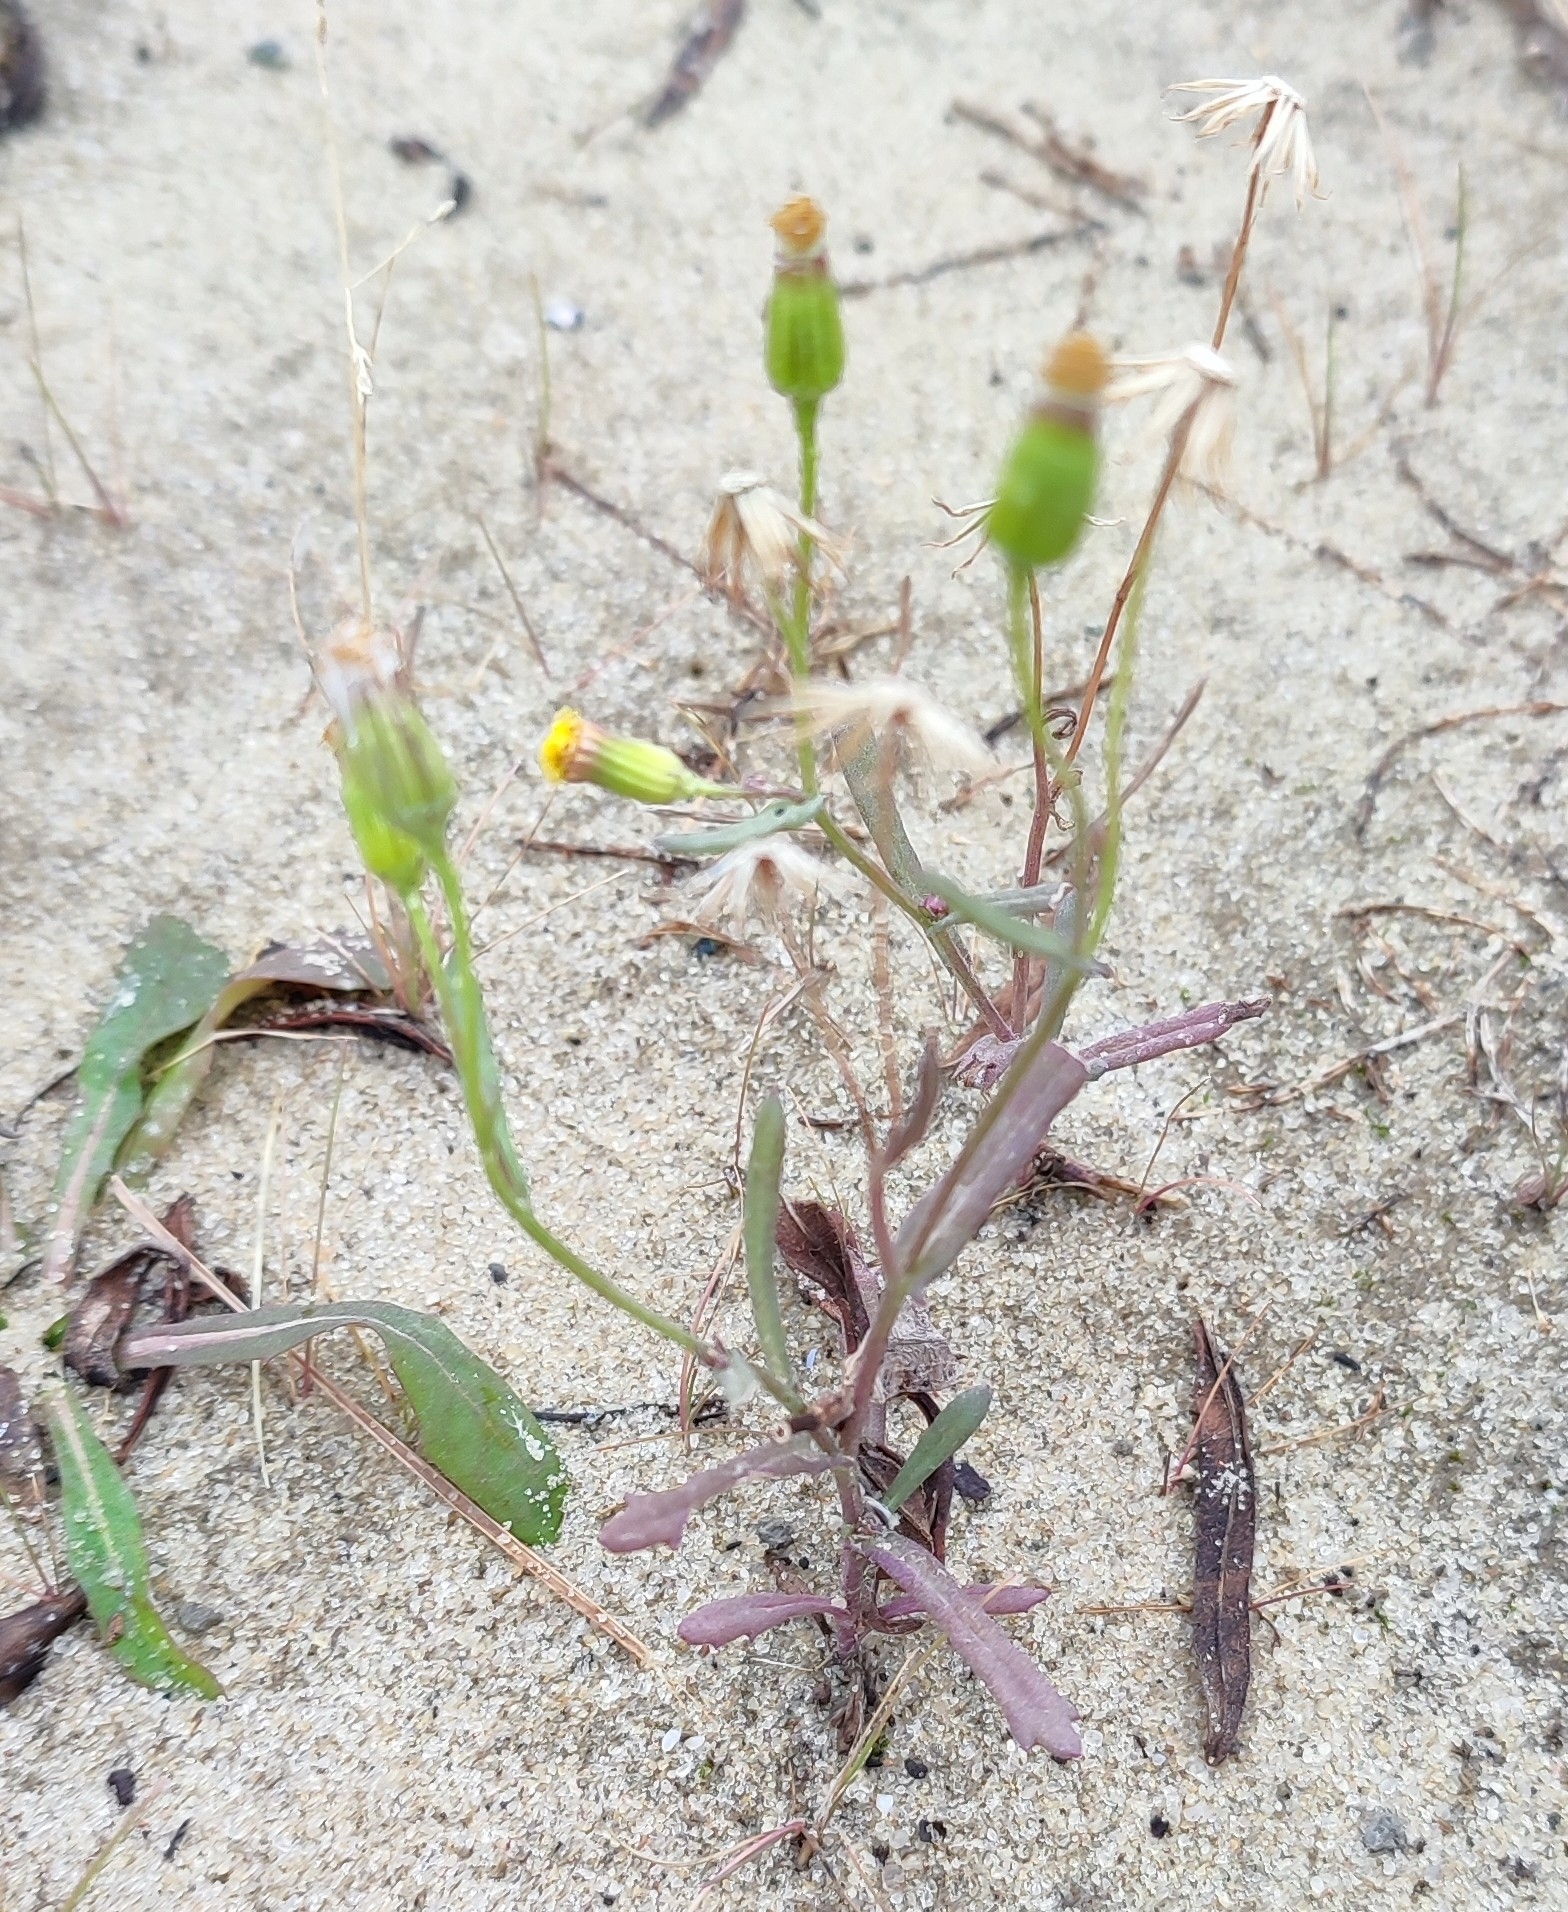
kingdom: Plantae
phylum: Tracheophyta
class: Magnoliopsida
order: Asterales
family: Asteraceae
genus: Senecio
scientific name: Senecio dubitabilis
